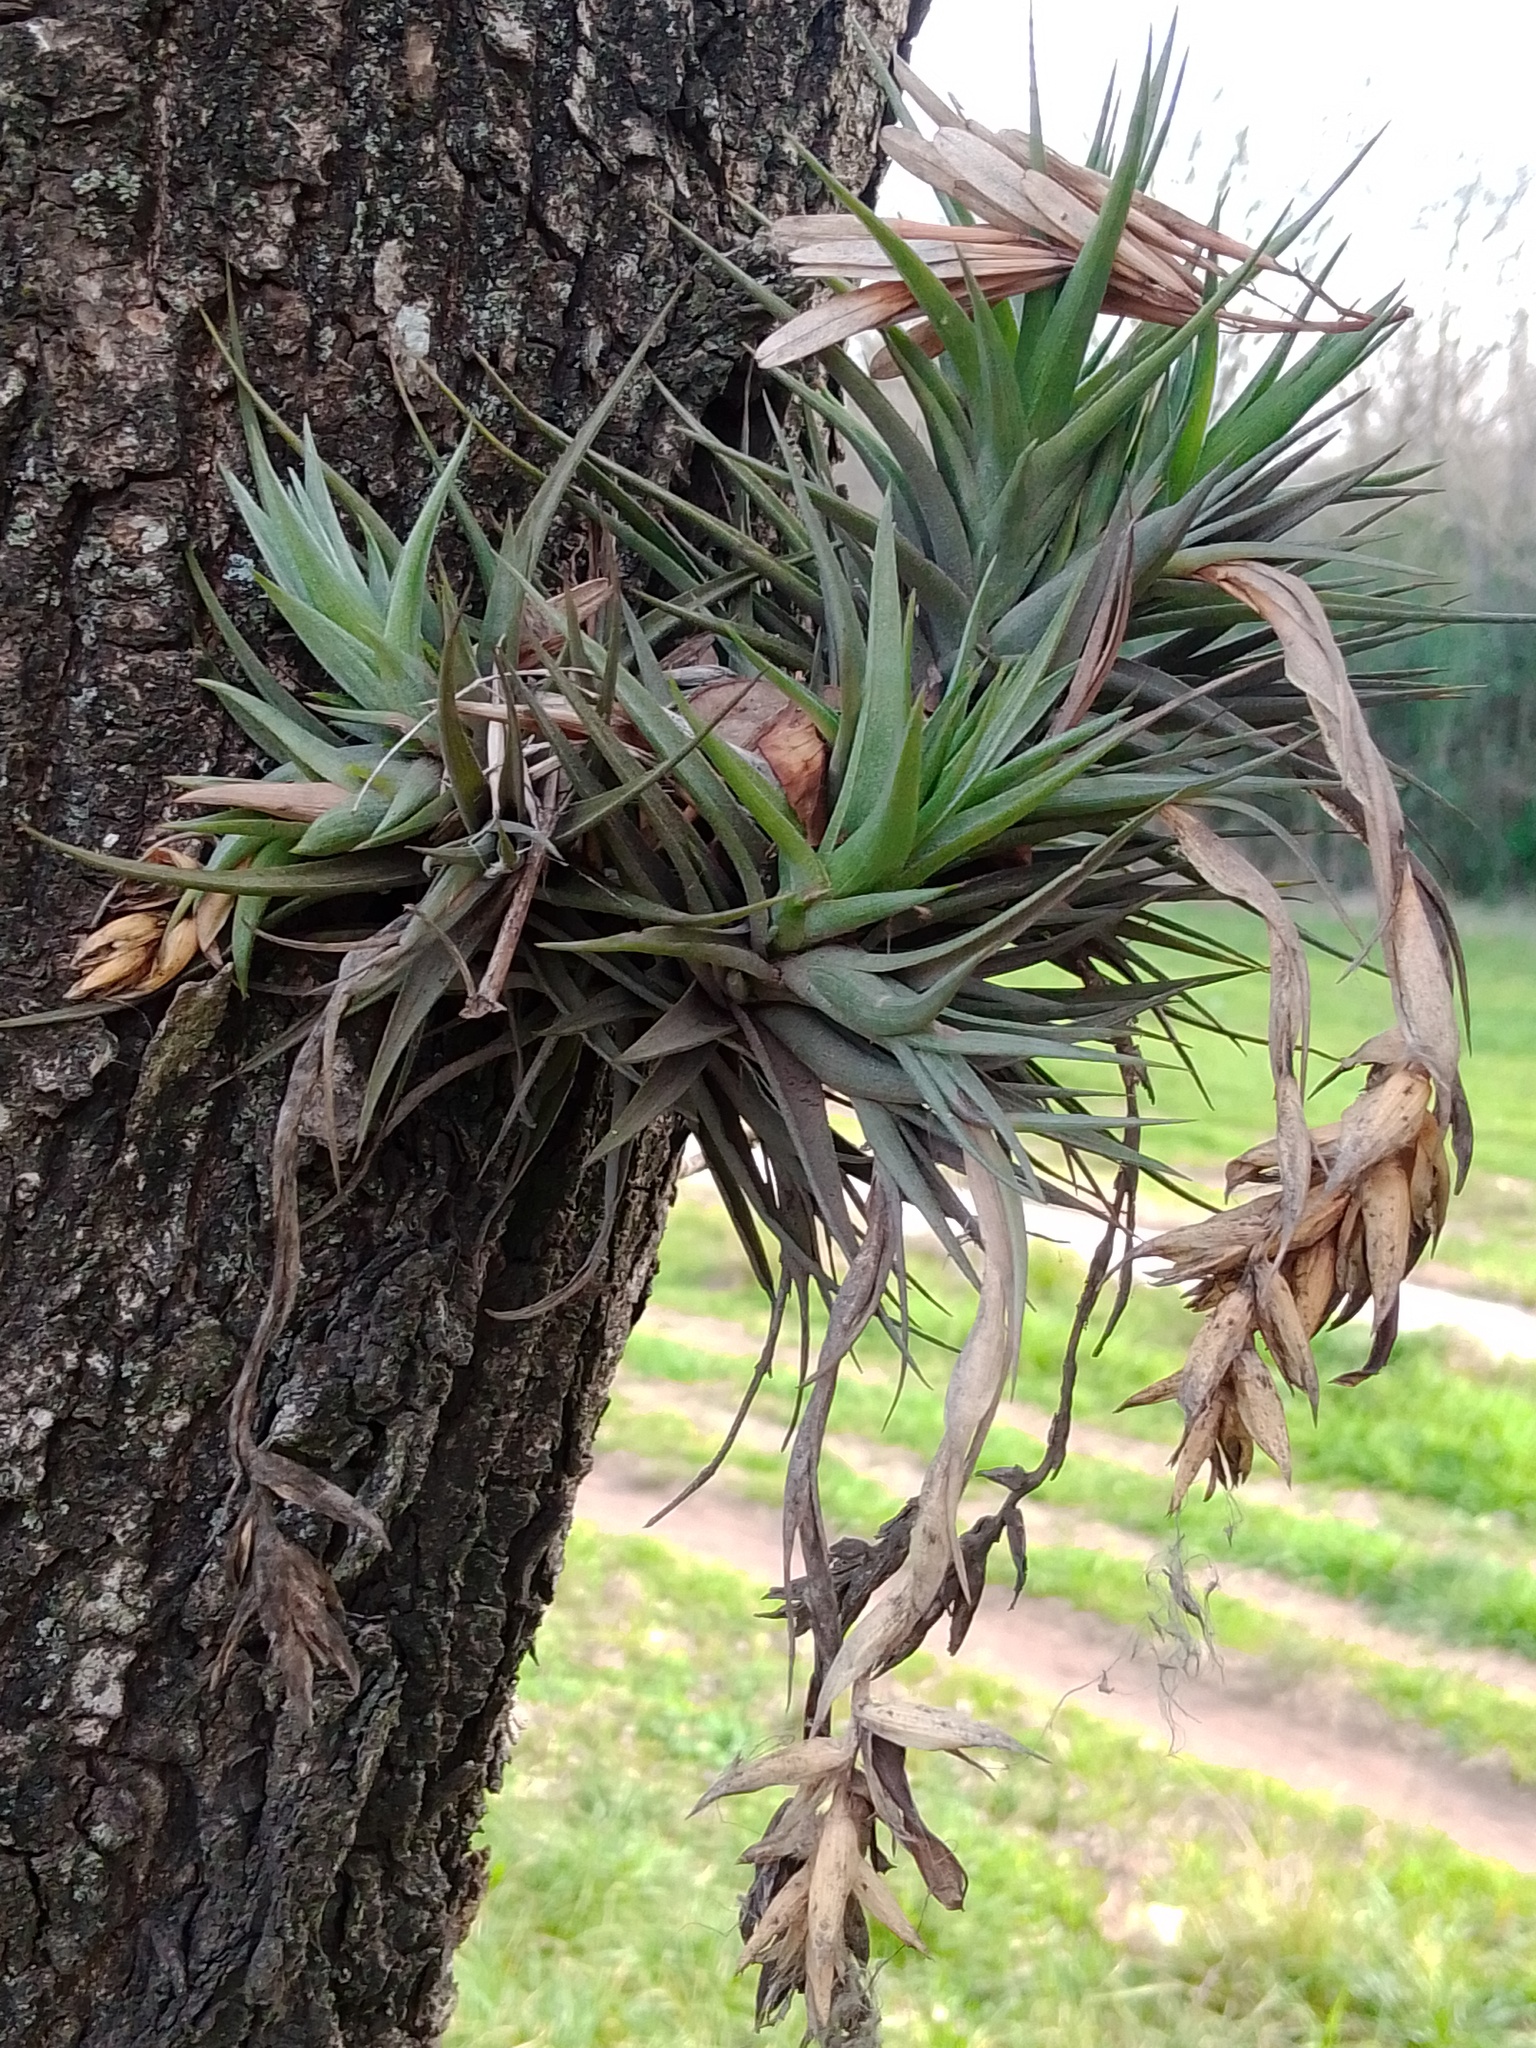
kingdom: Plantae
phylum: Tracheophyta
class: Liliopsida
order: Poales
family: Bromeliaceae
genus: Tillandsia
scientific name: Tillandsia aeranthos
